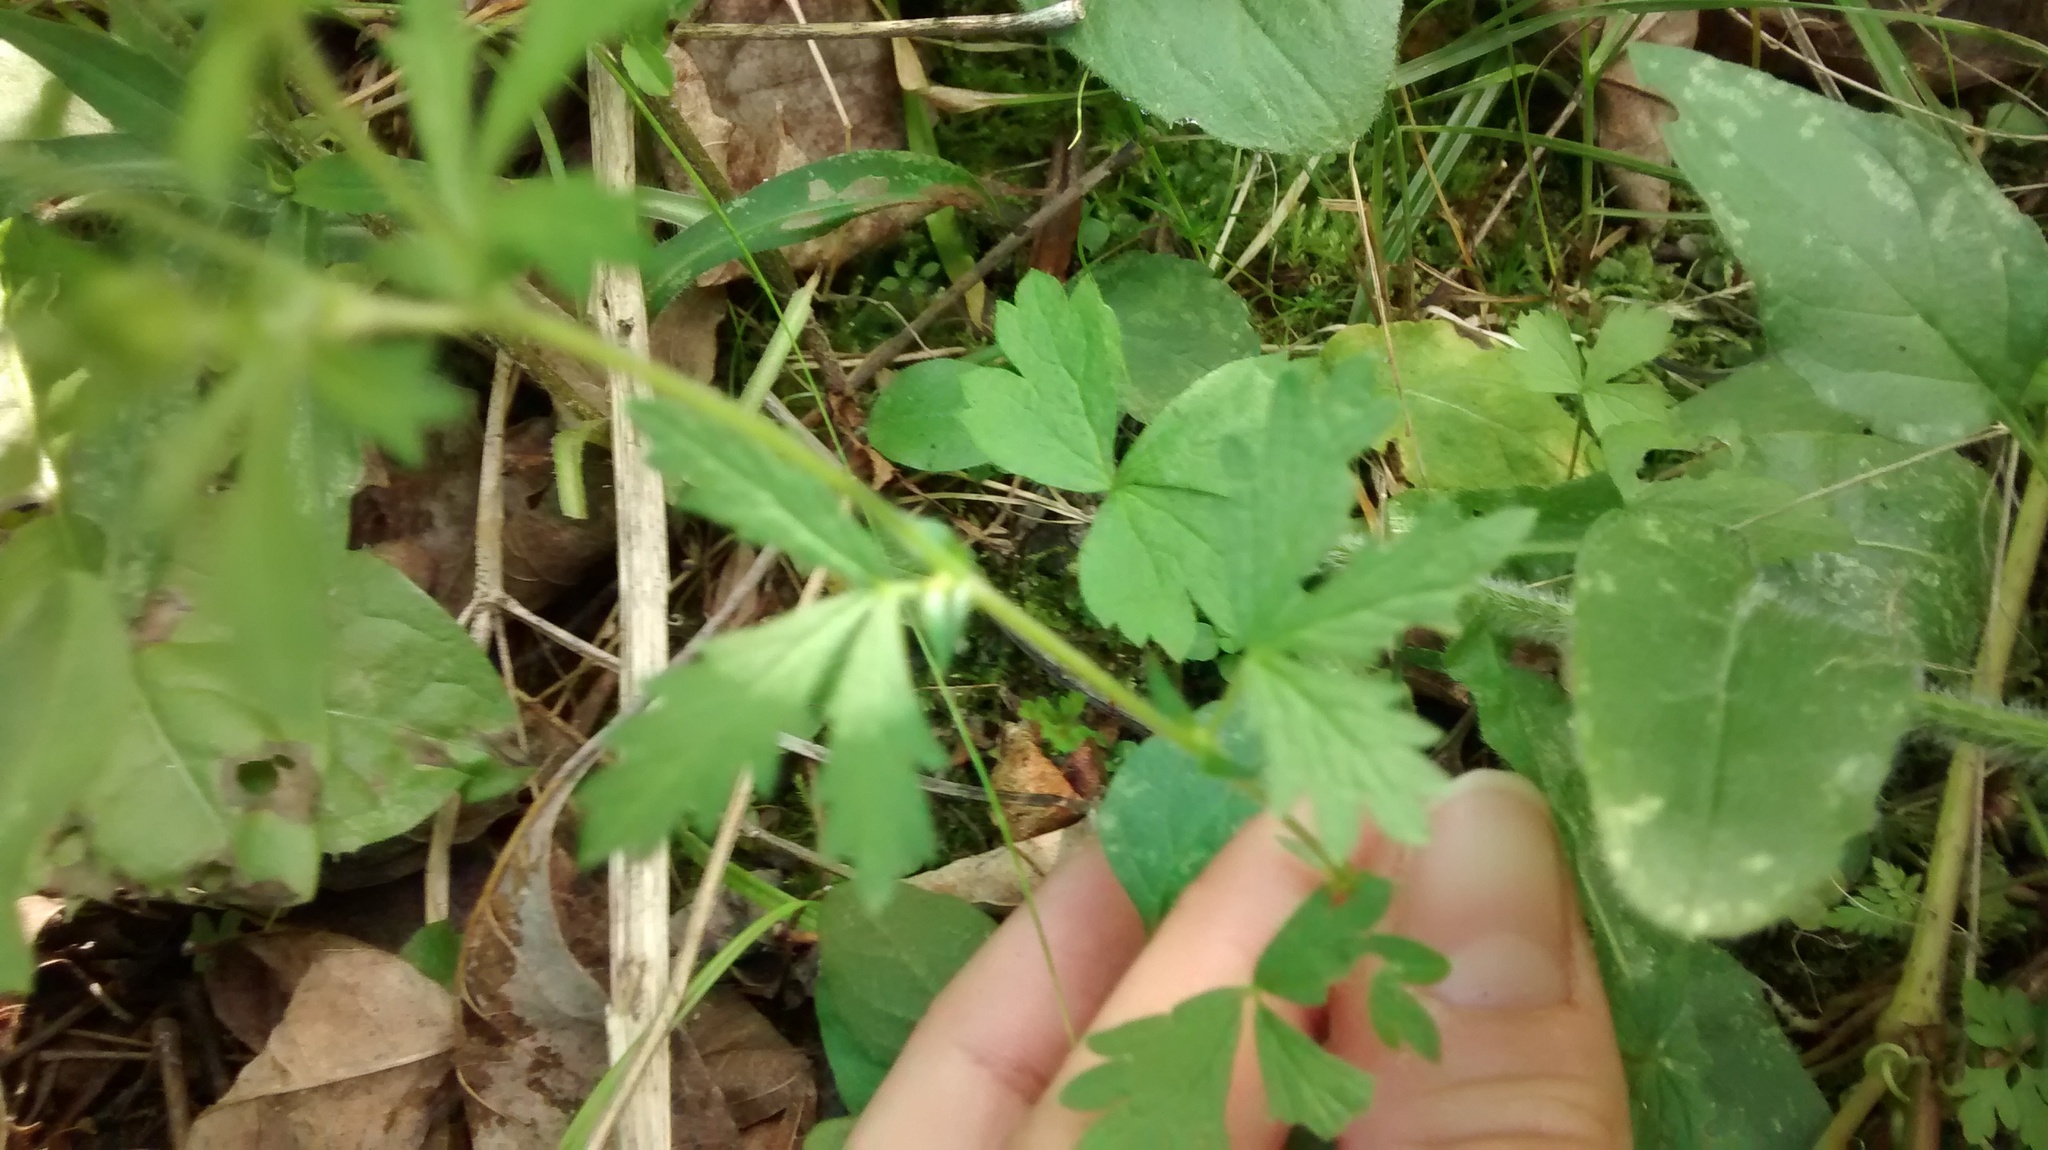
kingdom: Plantae
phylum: Tracheophyta
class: Magnoliopsida
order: Rosales
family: Rosaceae
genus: Potentilla
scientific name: Potentilla norvegica
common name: Ternate-leaved cinquefoil
